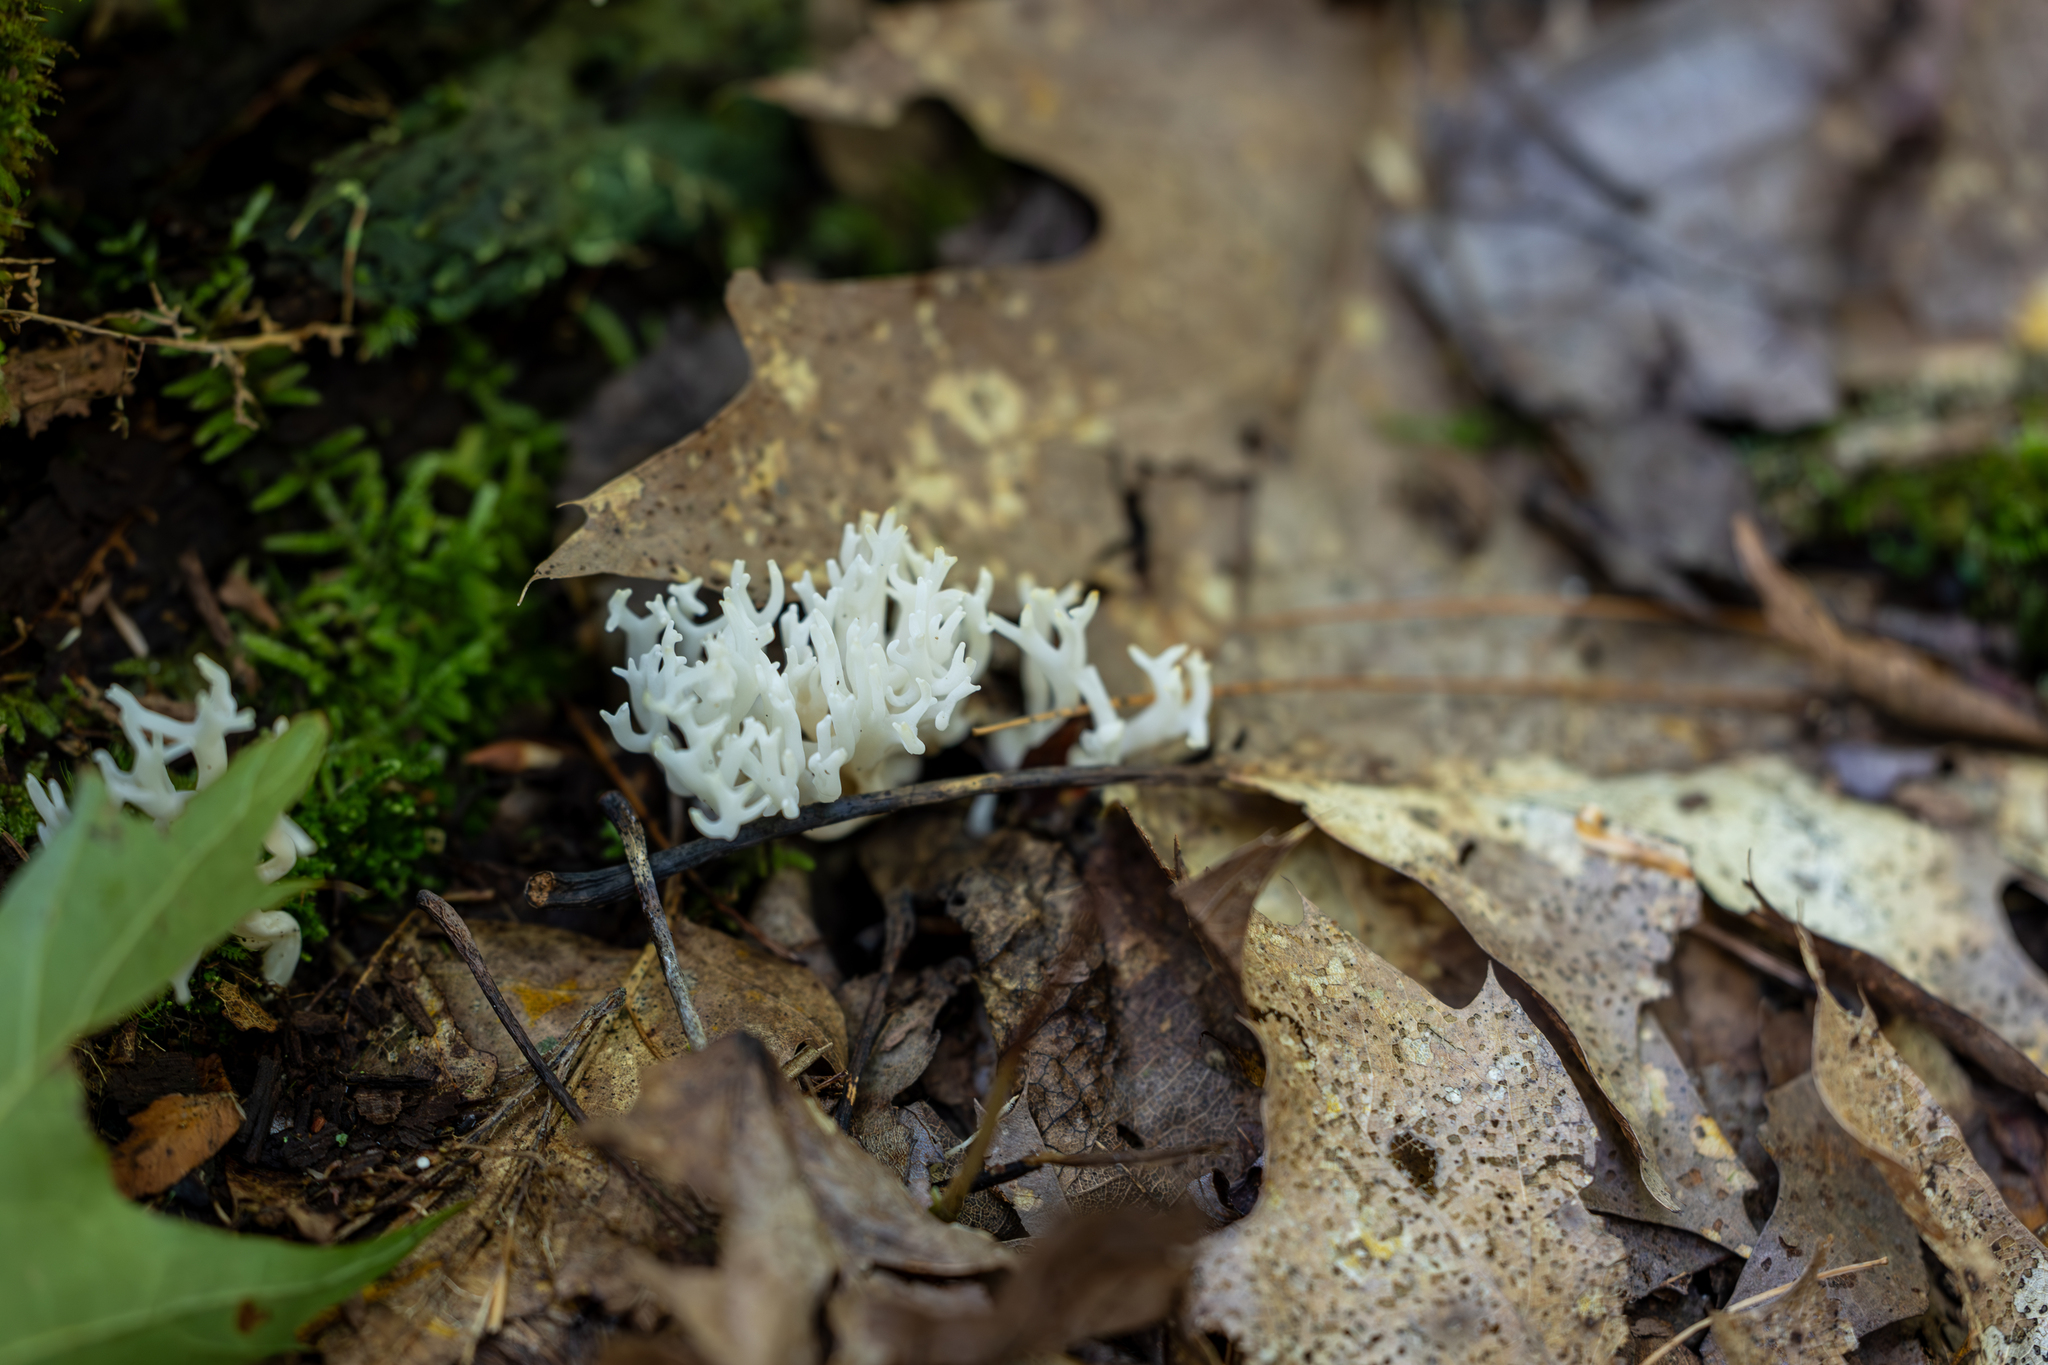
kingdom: Fungi
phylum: Basidiomycota
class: Agaricomycetes
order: Agaricales
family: Clavariaceae
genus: Ramariopsis
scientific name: Ramariopsis kunzei
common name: Ivory coral
